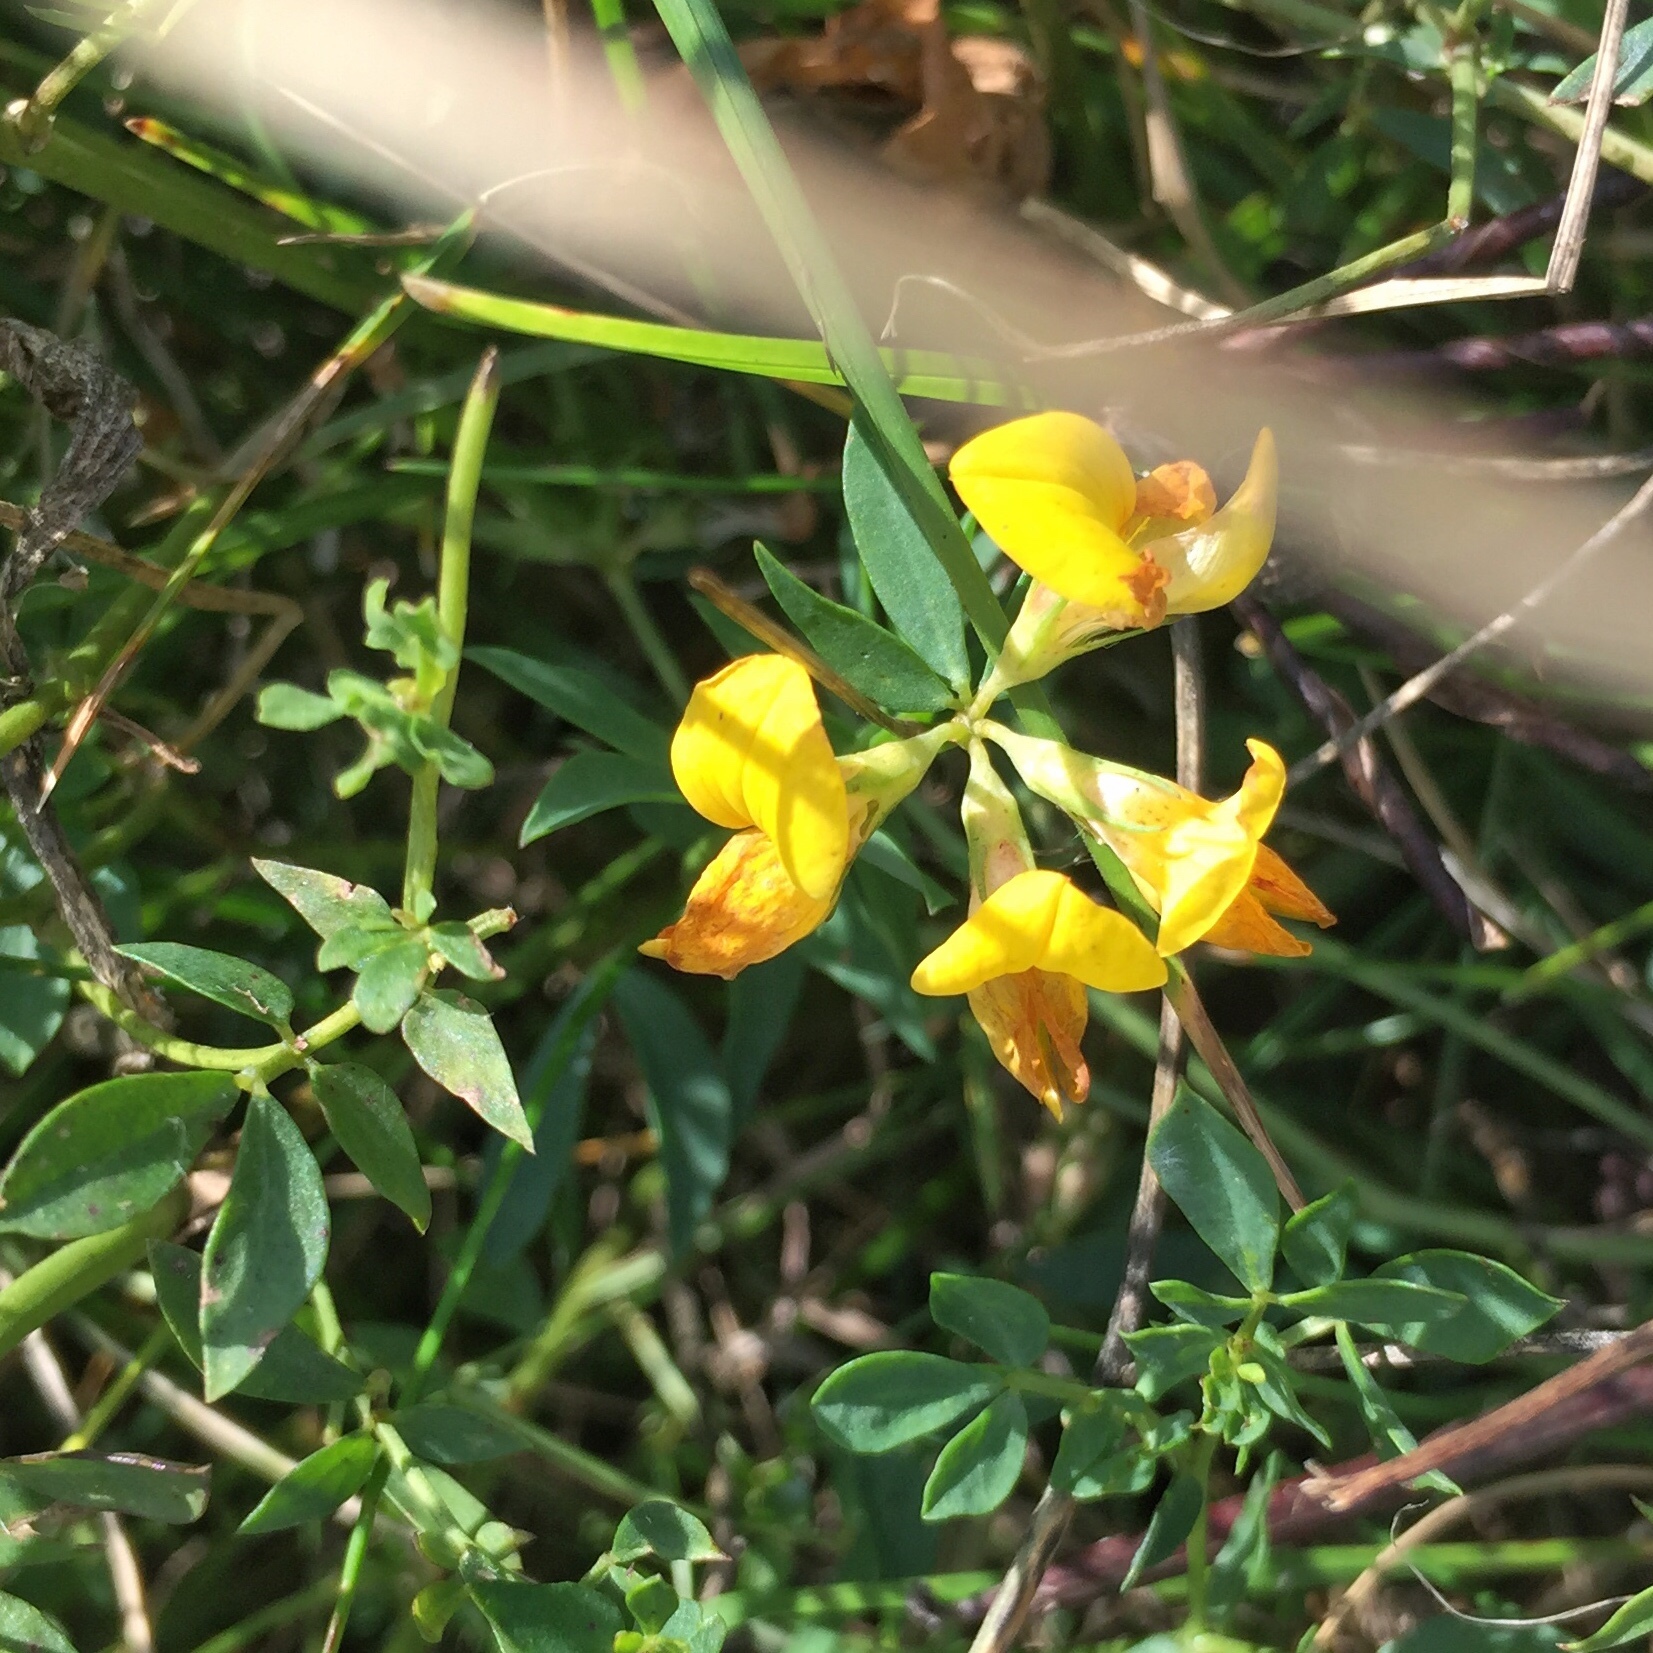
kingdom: Plantae
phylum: Tracheophyta
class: Magnoliopsida
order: Fabales
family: Fabaceae
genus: Lotus
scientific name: Lotus corniculatus
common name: Common bird's-foot-trefoil
